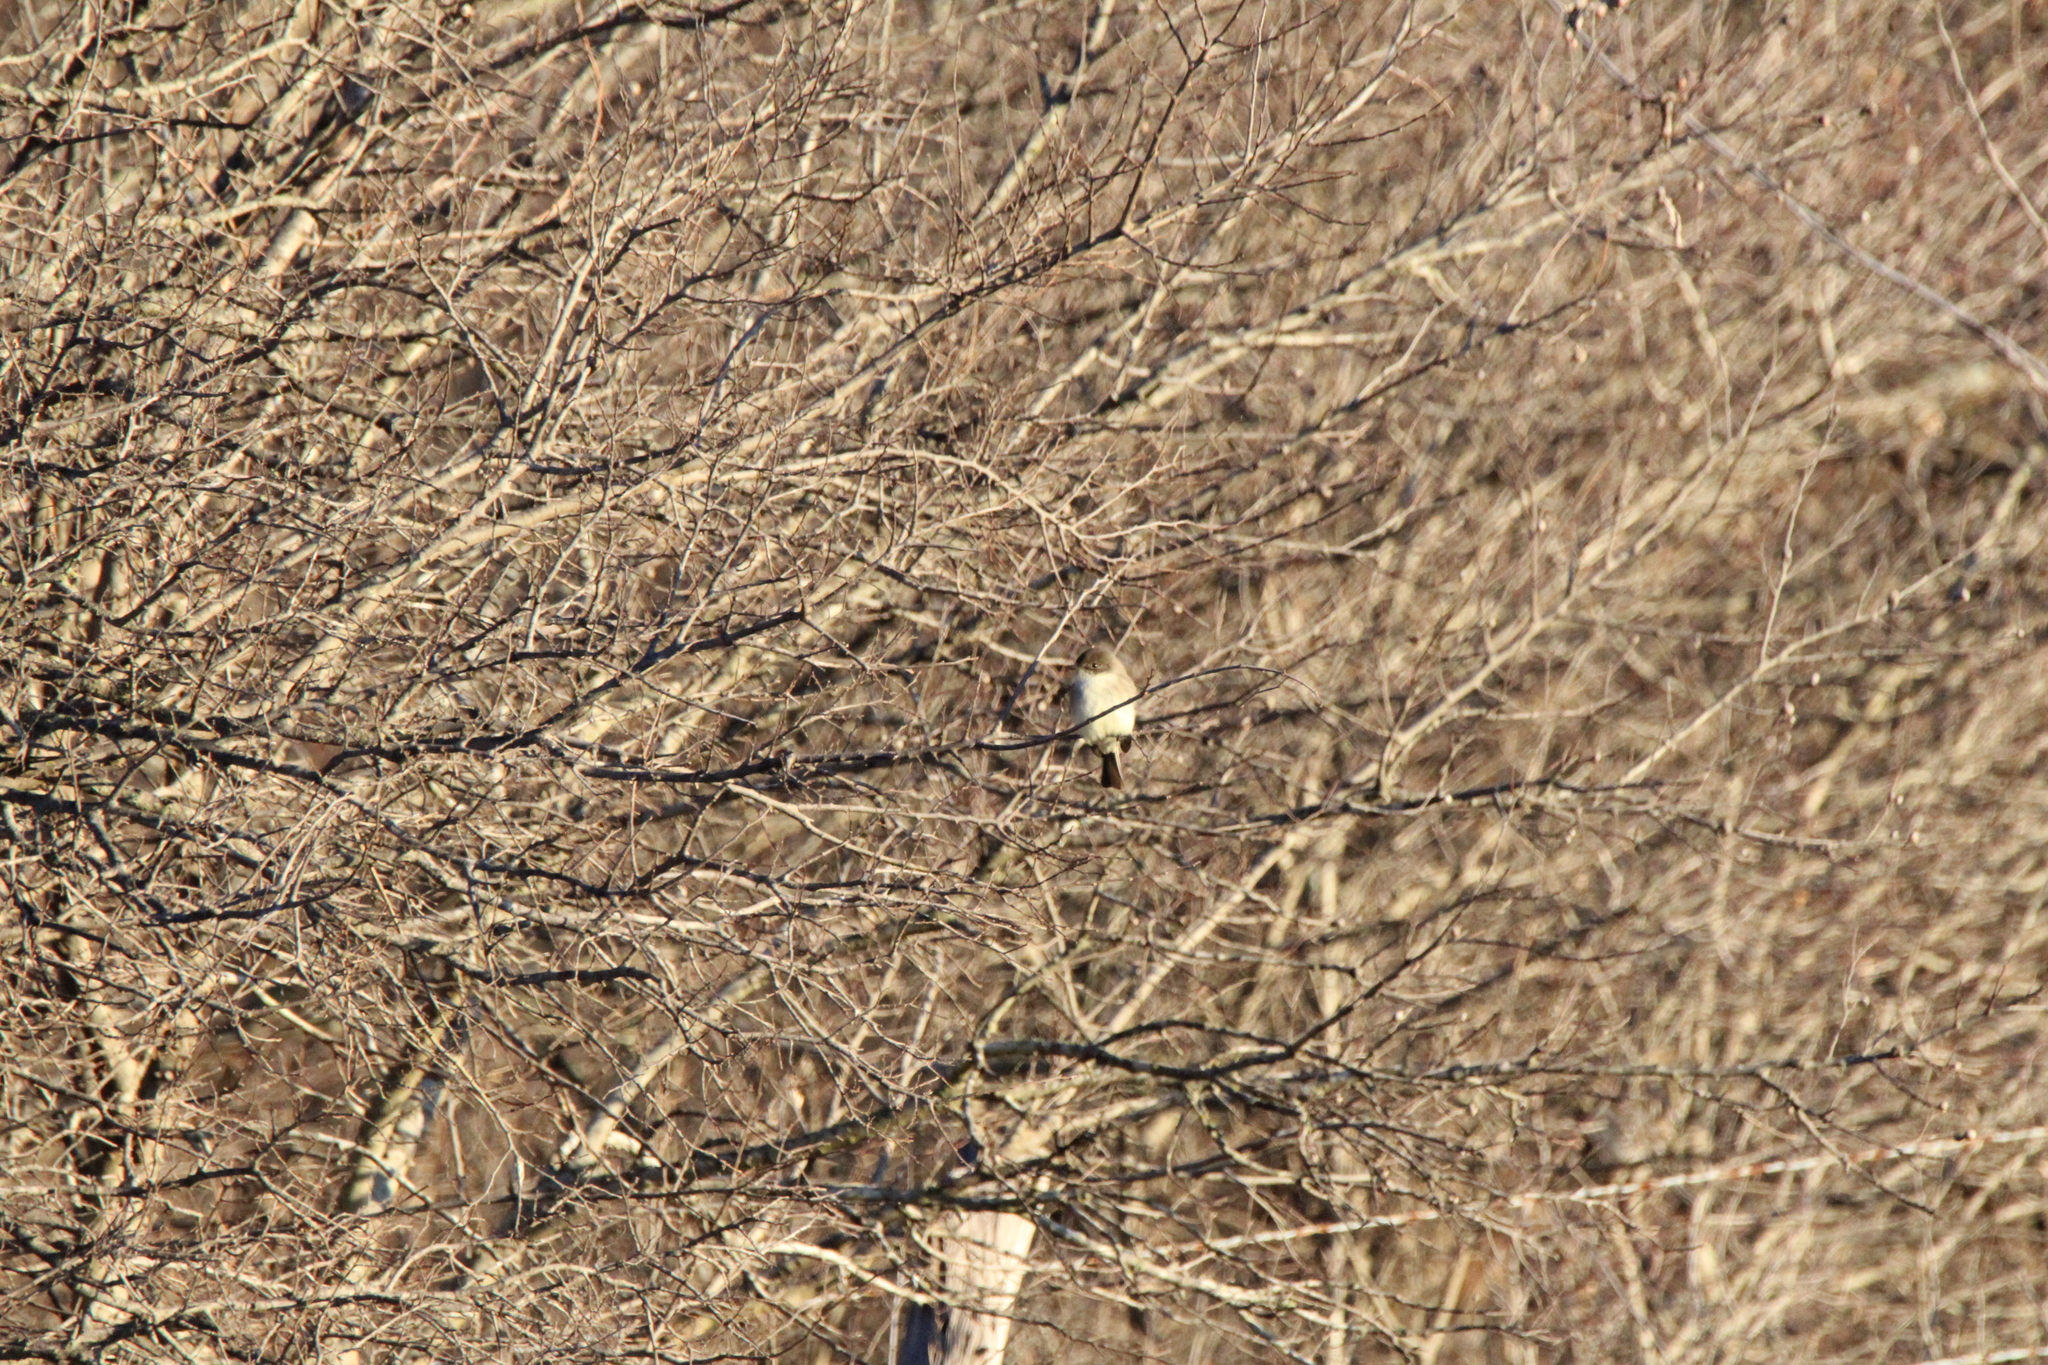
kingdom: Animalia
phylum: Chordata
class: Aves
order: Passeriformes
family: Tyrannidae
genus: Sayornis
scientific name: Sayornis phoebe
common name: Eastern phoebe
